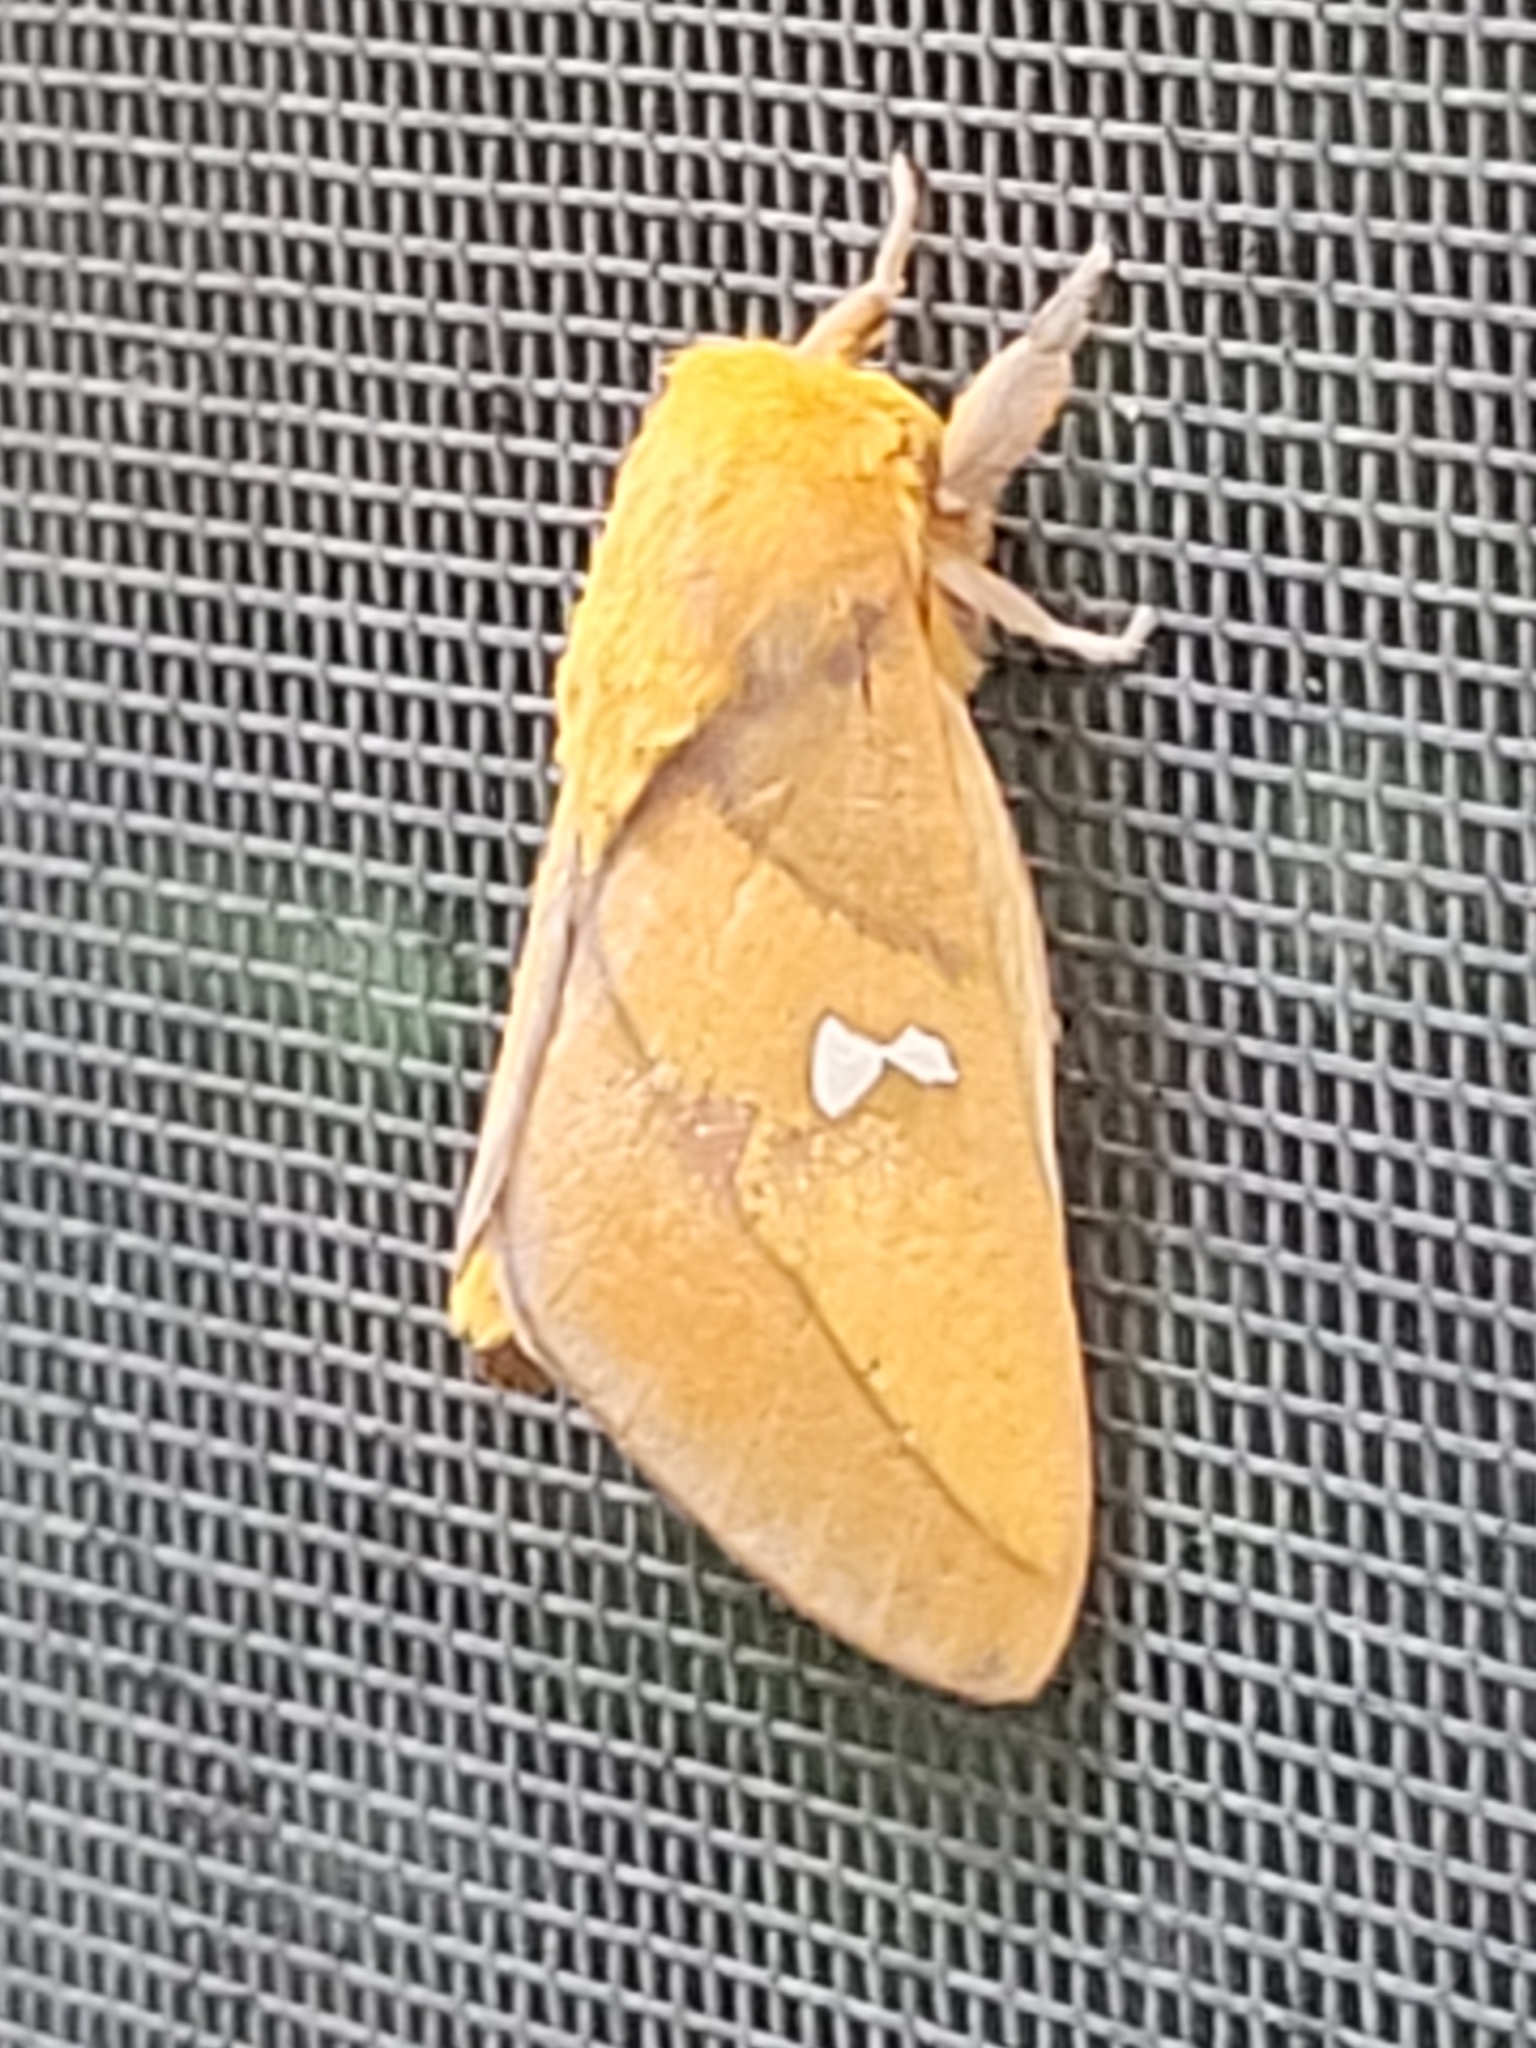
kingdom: Animalia
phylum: Arthropoda
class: Insecta
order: Lepidoptera
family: Saturniidae
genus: Syssphinx
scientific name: Syssphinx blanchardi
